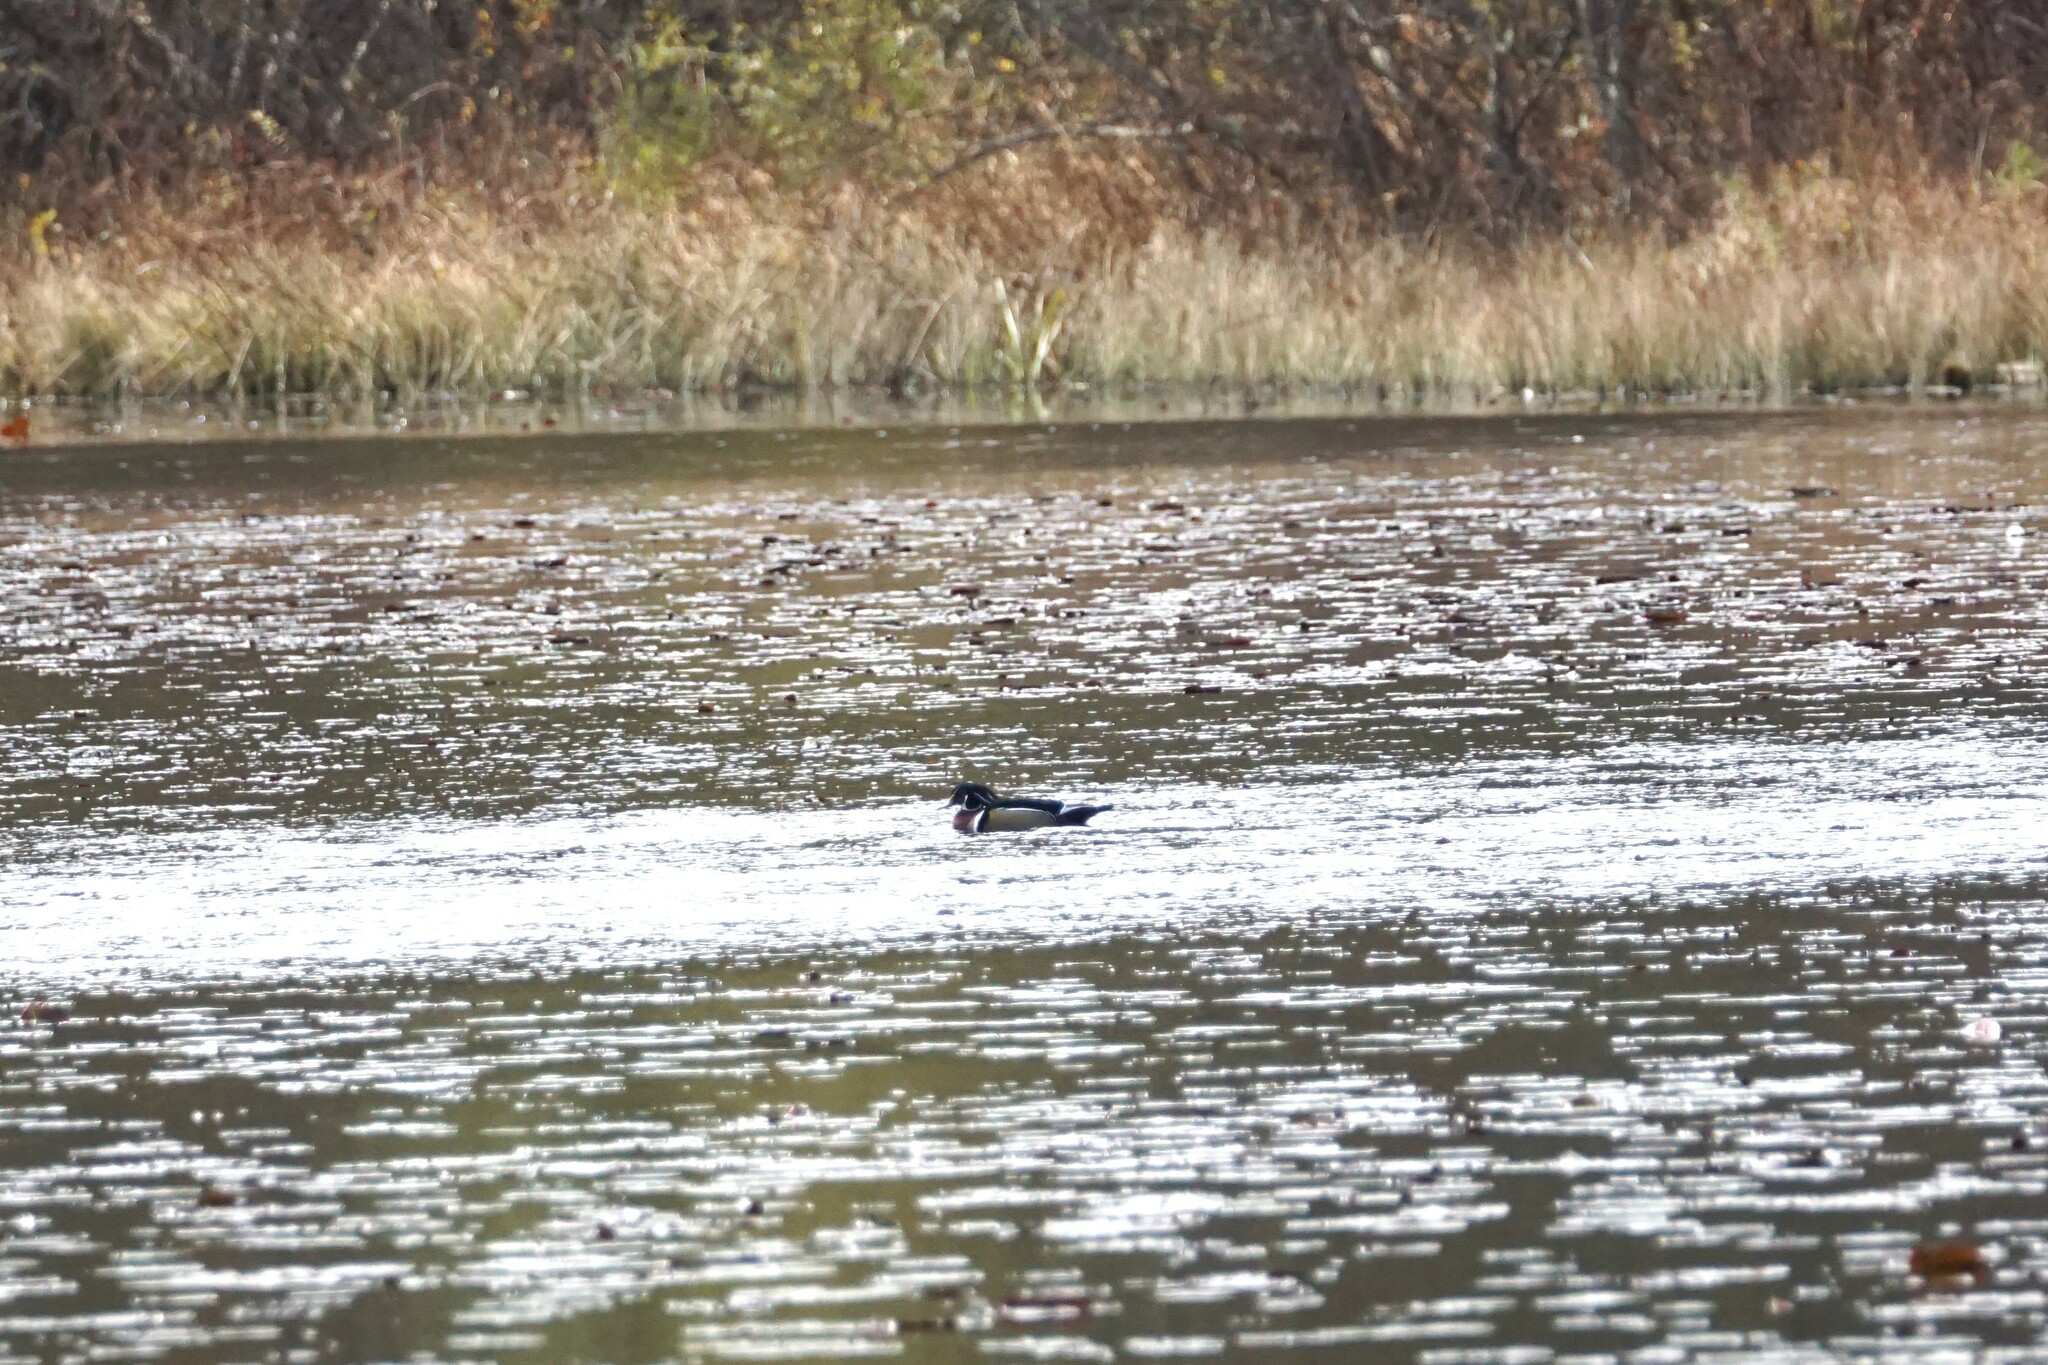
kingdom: Animalia
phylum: Chordata
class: Aves
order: Anseriformes
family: Anatidae
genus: Aix
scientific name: Aix sponsa
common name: Wood duck
